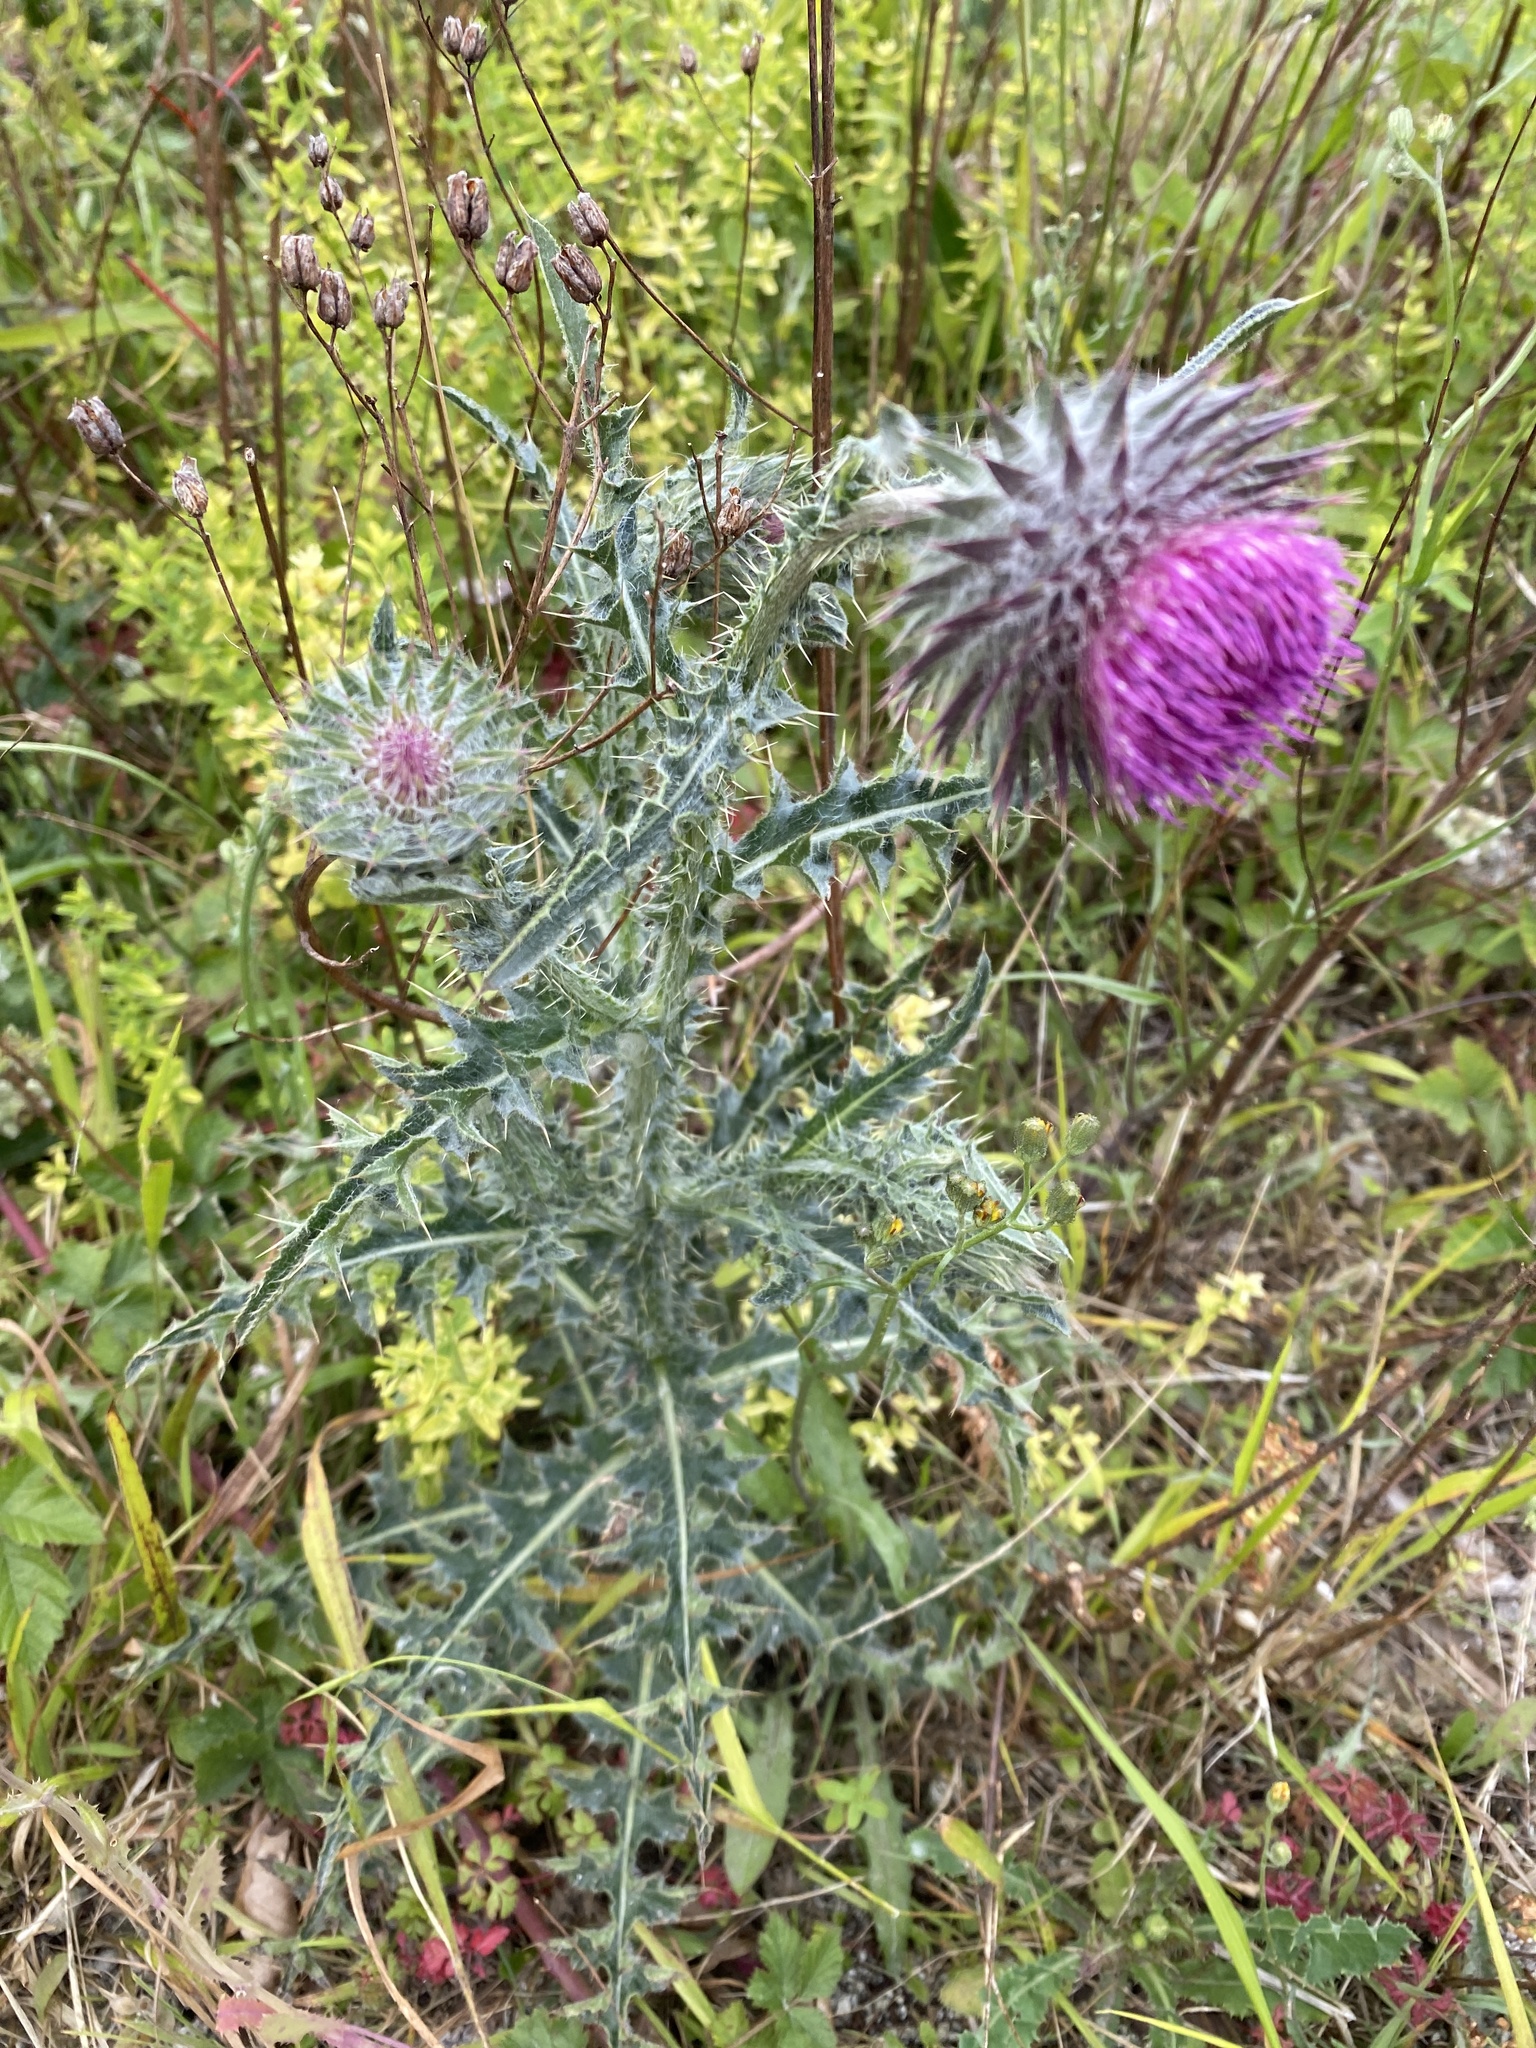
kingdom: Plantae
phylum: Tracheophyta
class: Magnoliopsida
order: Asterales
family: Asteraceae
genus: Carduus
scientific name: Carduus nutans
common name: Musk thistle
